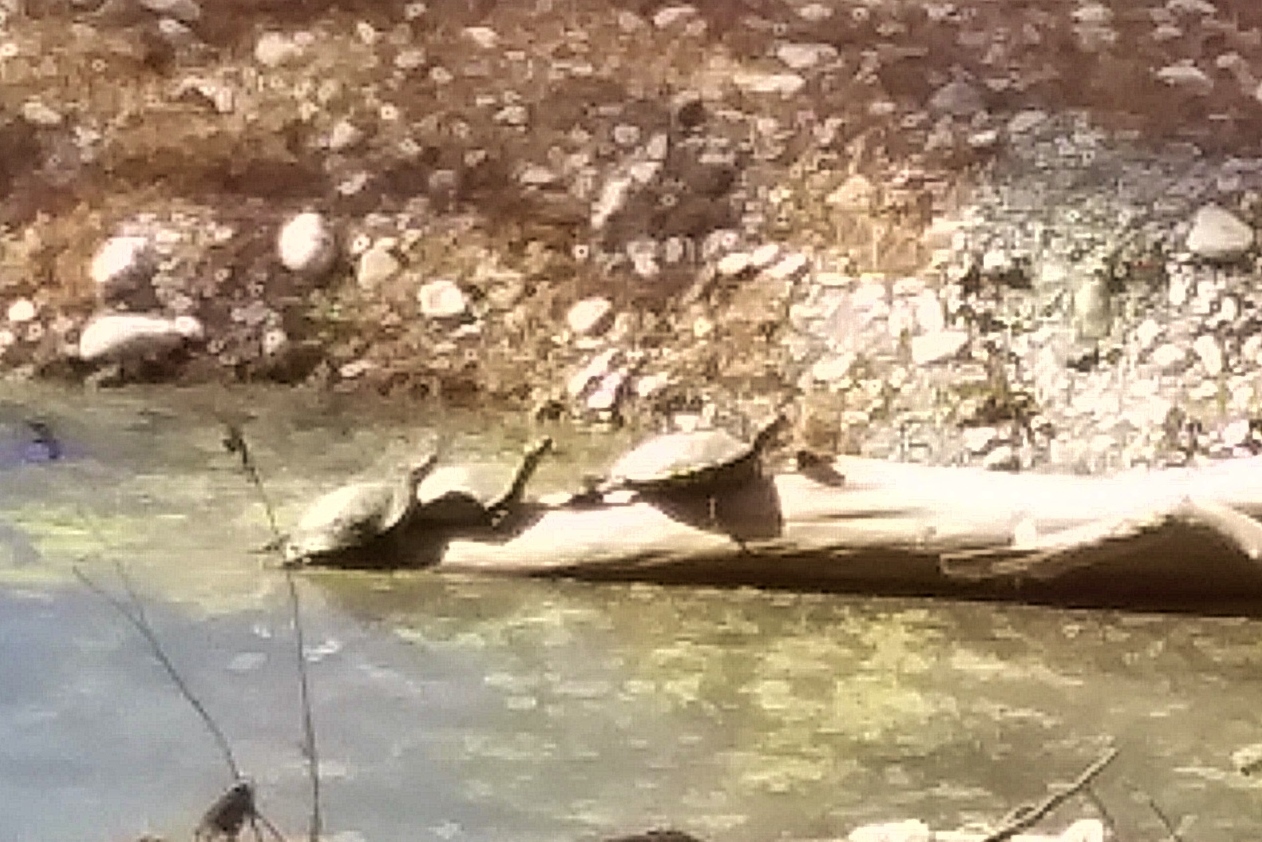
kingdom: Animalia
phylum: Chordata
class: Testudines
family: Emydidae
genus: Trachemys
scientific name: Trachemys scripta
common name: Slider
